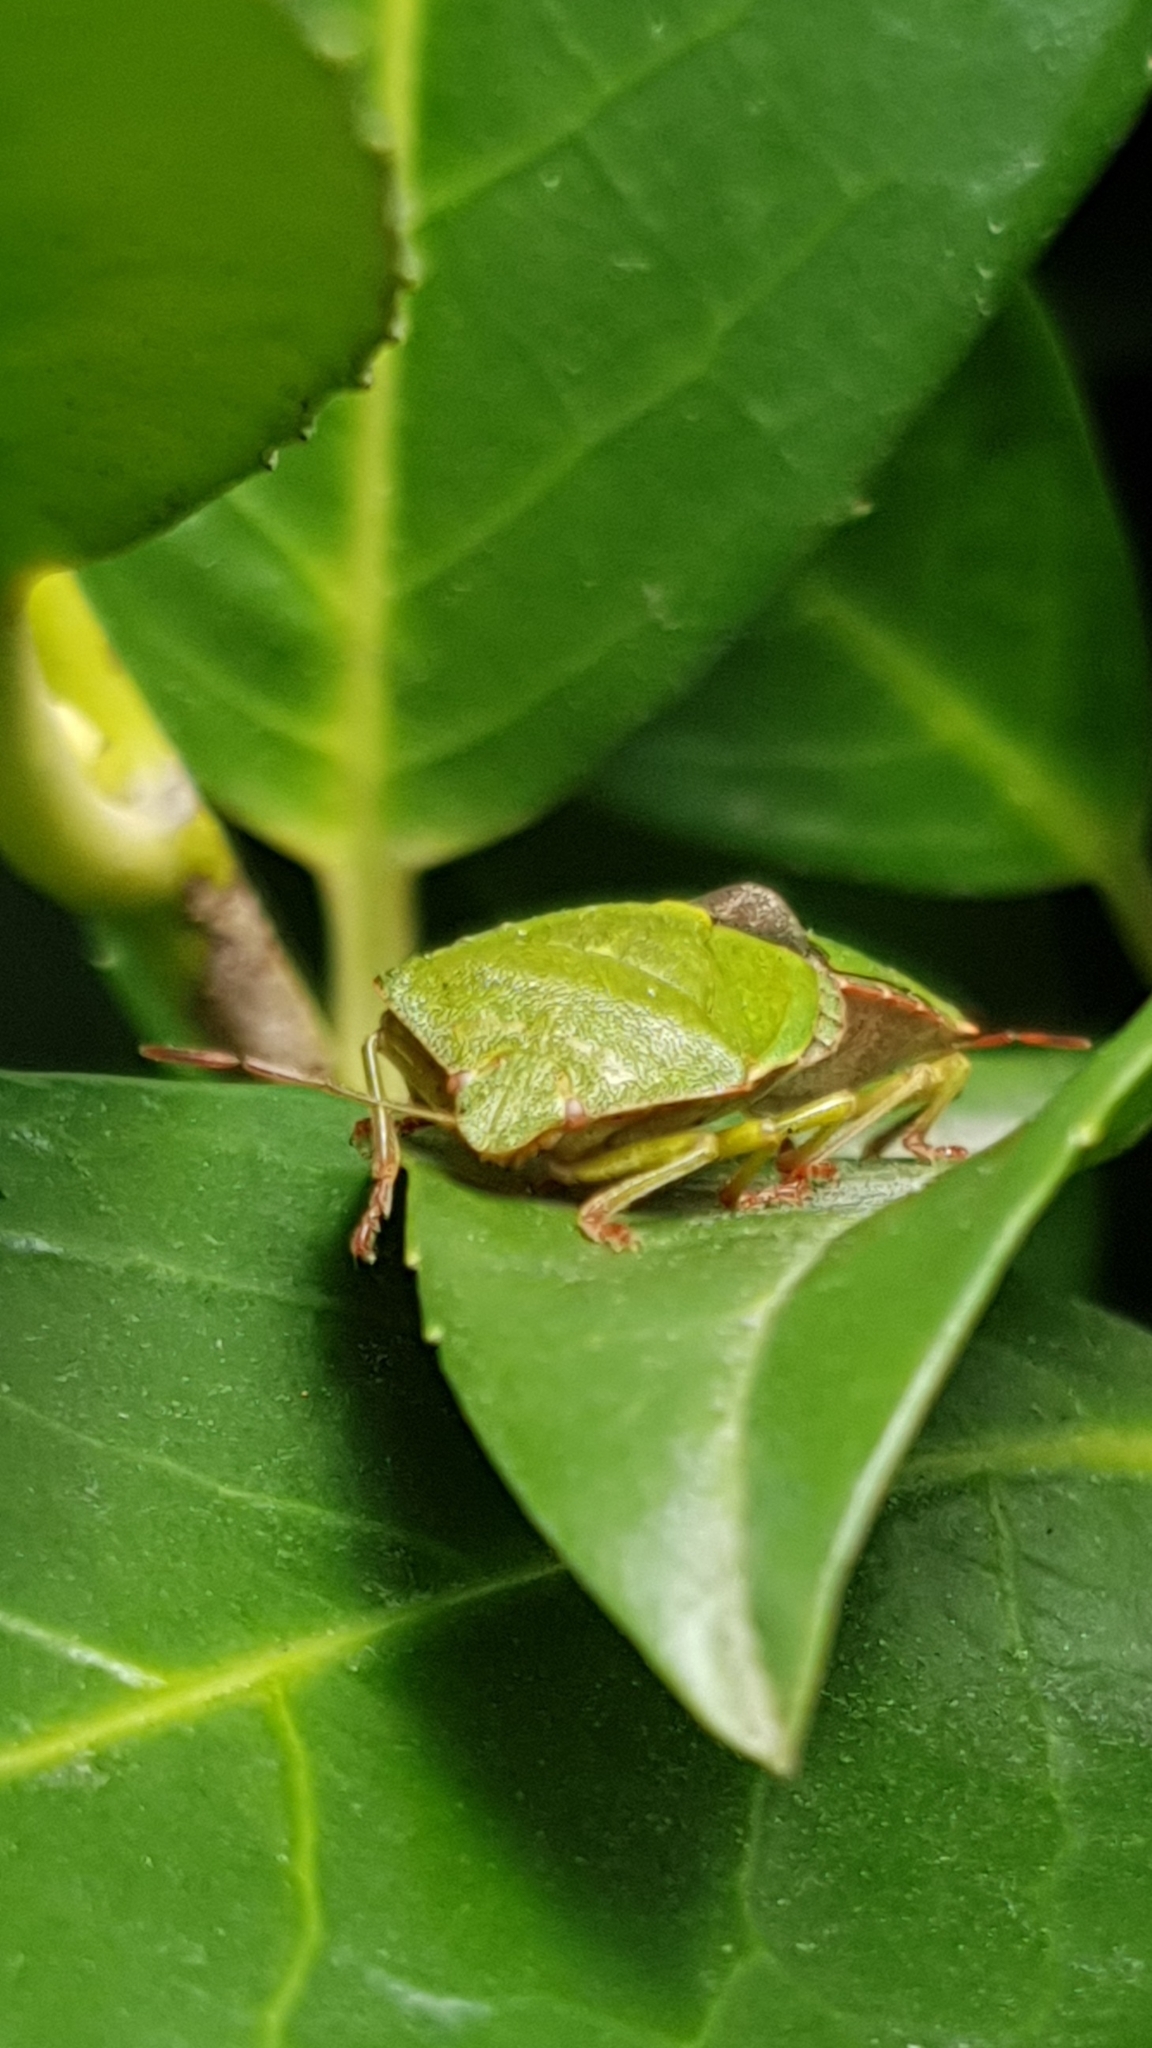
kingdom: Animalia
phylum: Arthropoda
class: Insecta
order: Hemiptera
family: Pentatomidae
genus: Palomena
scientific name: Palomena prasina
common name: Green shieldbug
